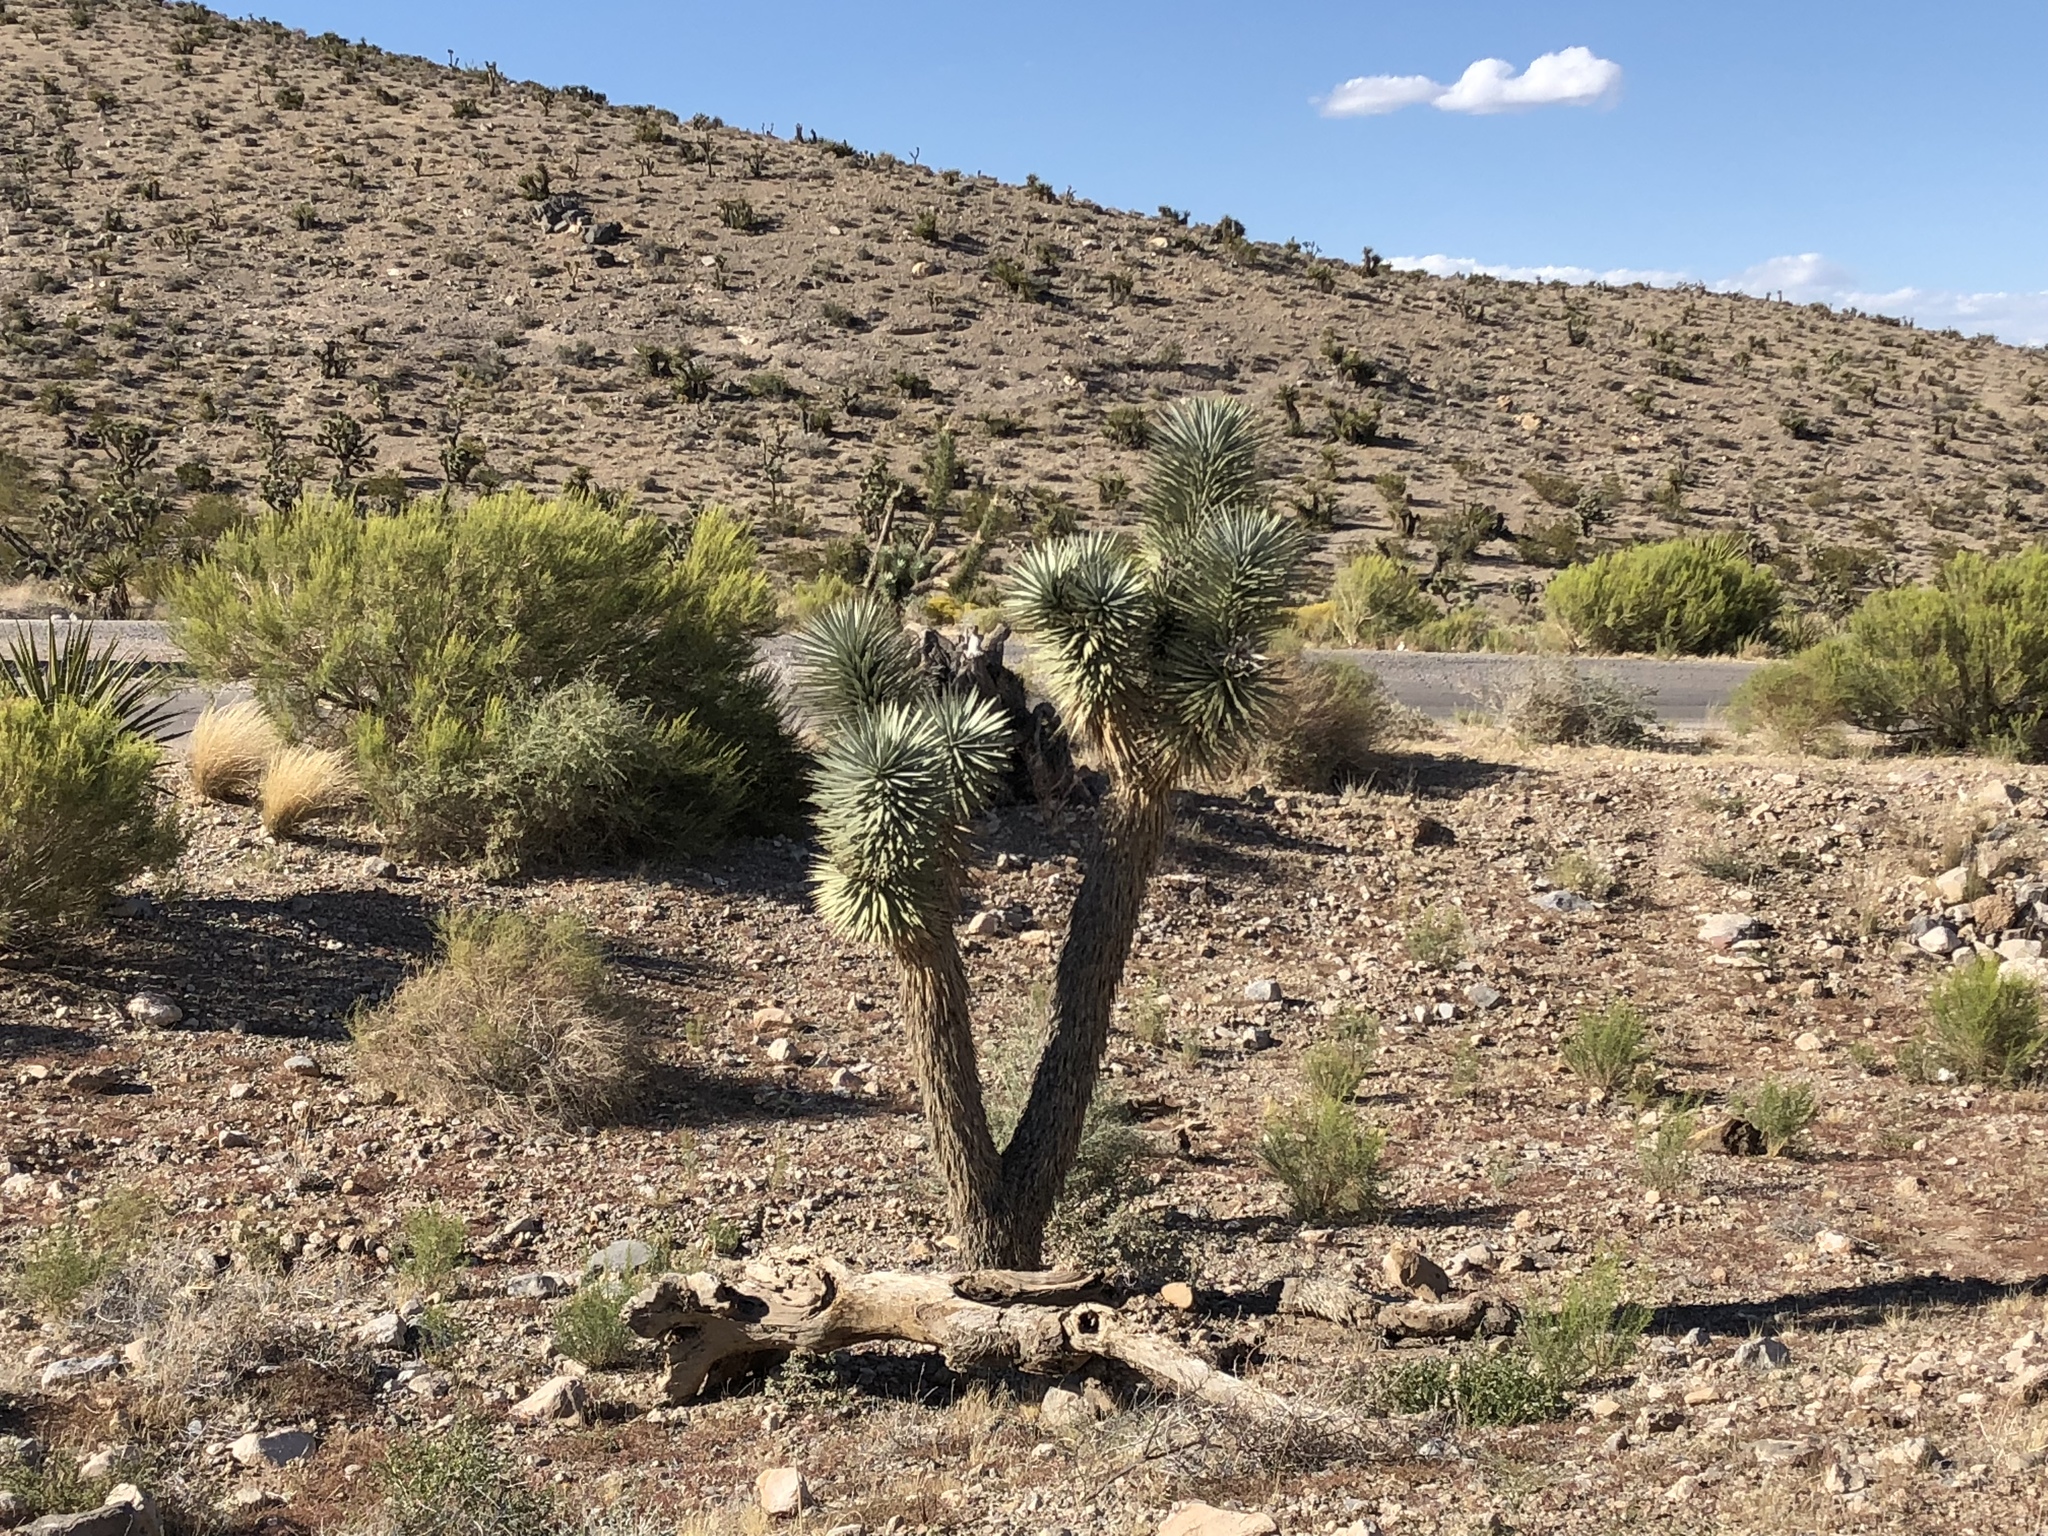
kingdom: Plantae
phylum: Tracheophyta
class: Liliopsida
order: Asparagales
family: Asparagaceae
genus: Yucca
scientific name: Yucca brevifolia
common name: Joshua tree
